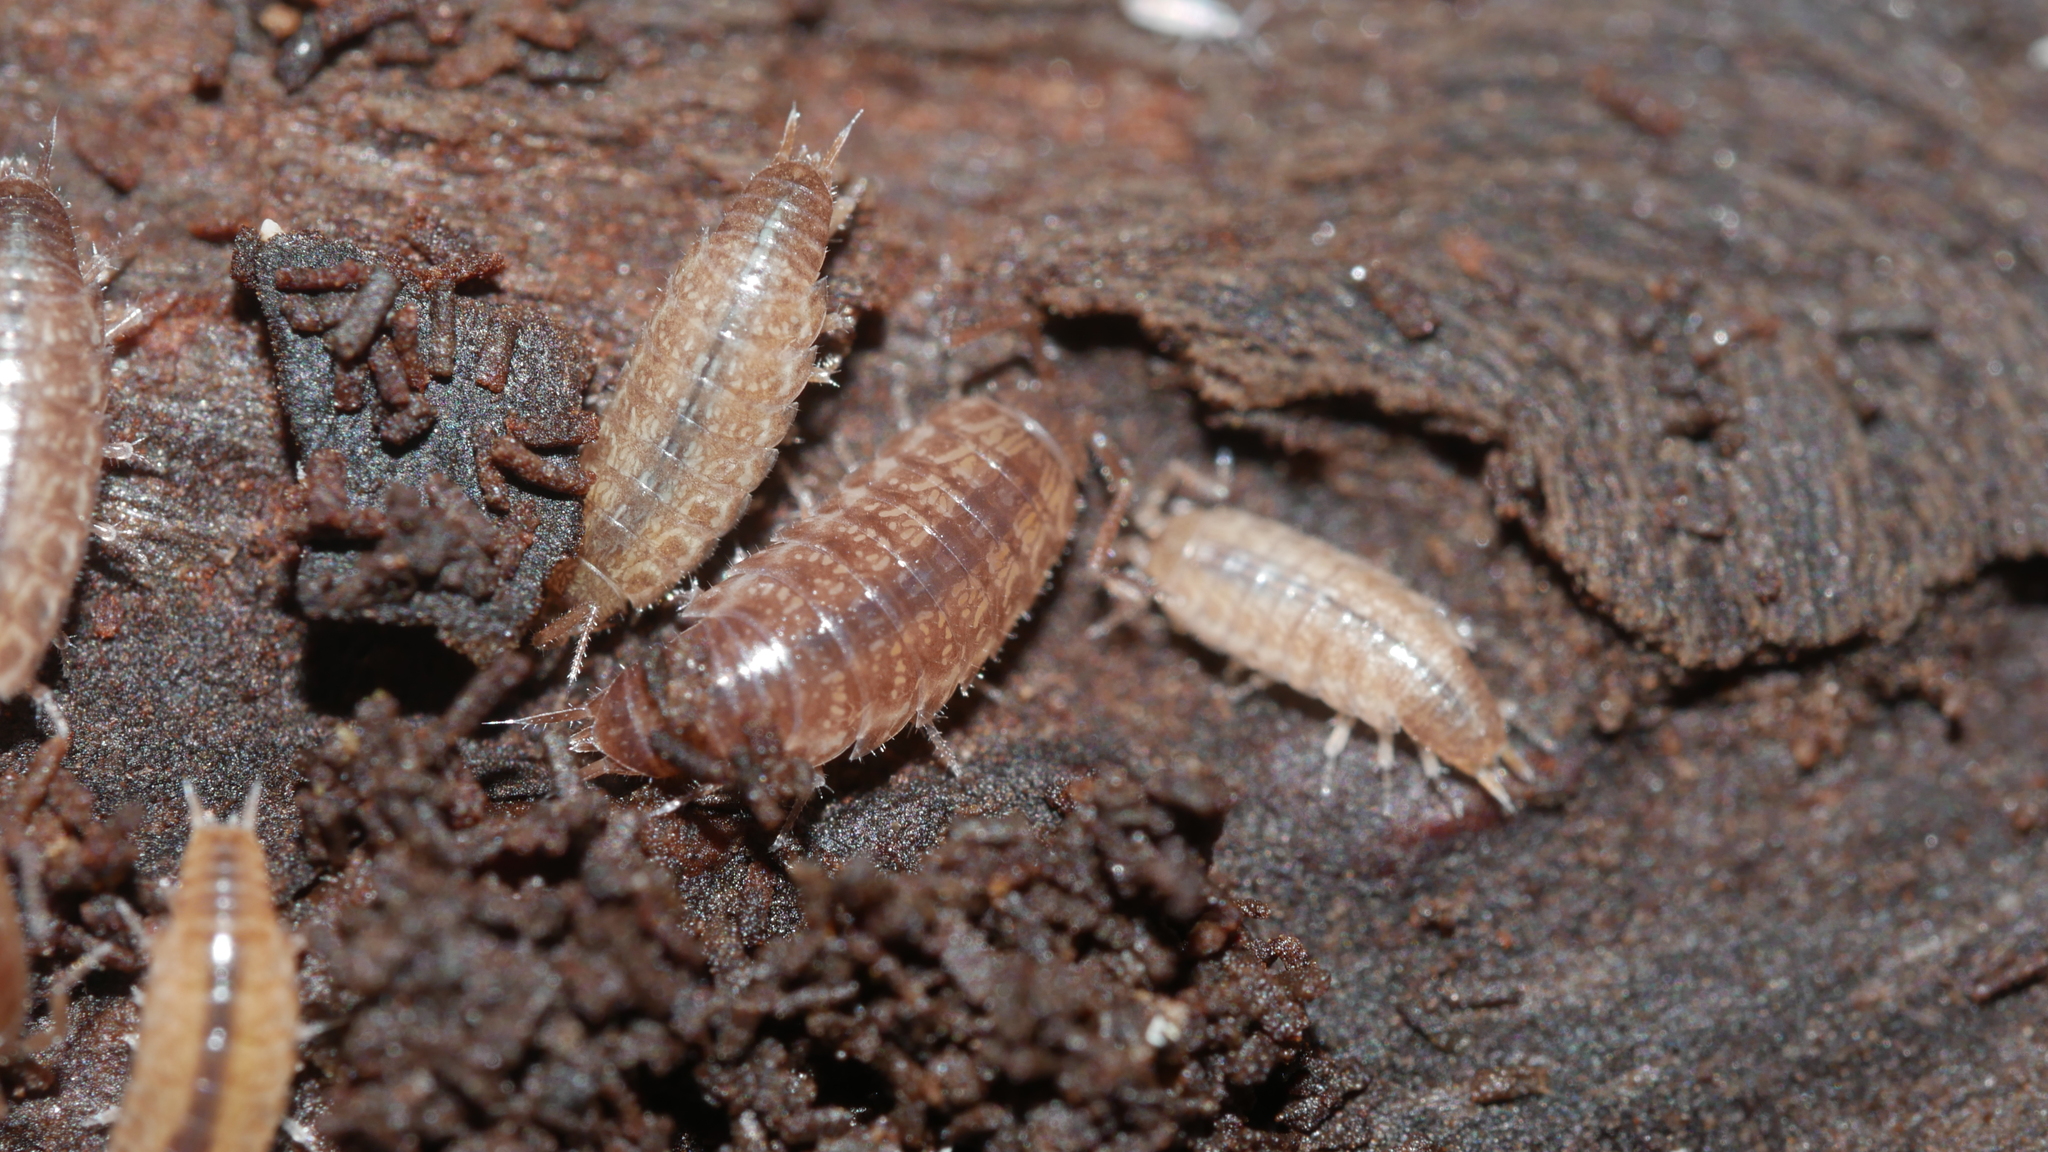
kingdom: Animalia
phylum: Arthropoda
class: Malacostraca
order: Isopoda
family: Philosciidae
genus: Chaetophiloscia
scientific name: Chaetophiloscia sicula
